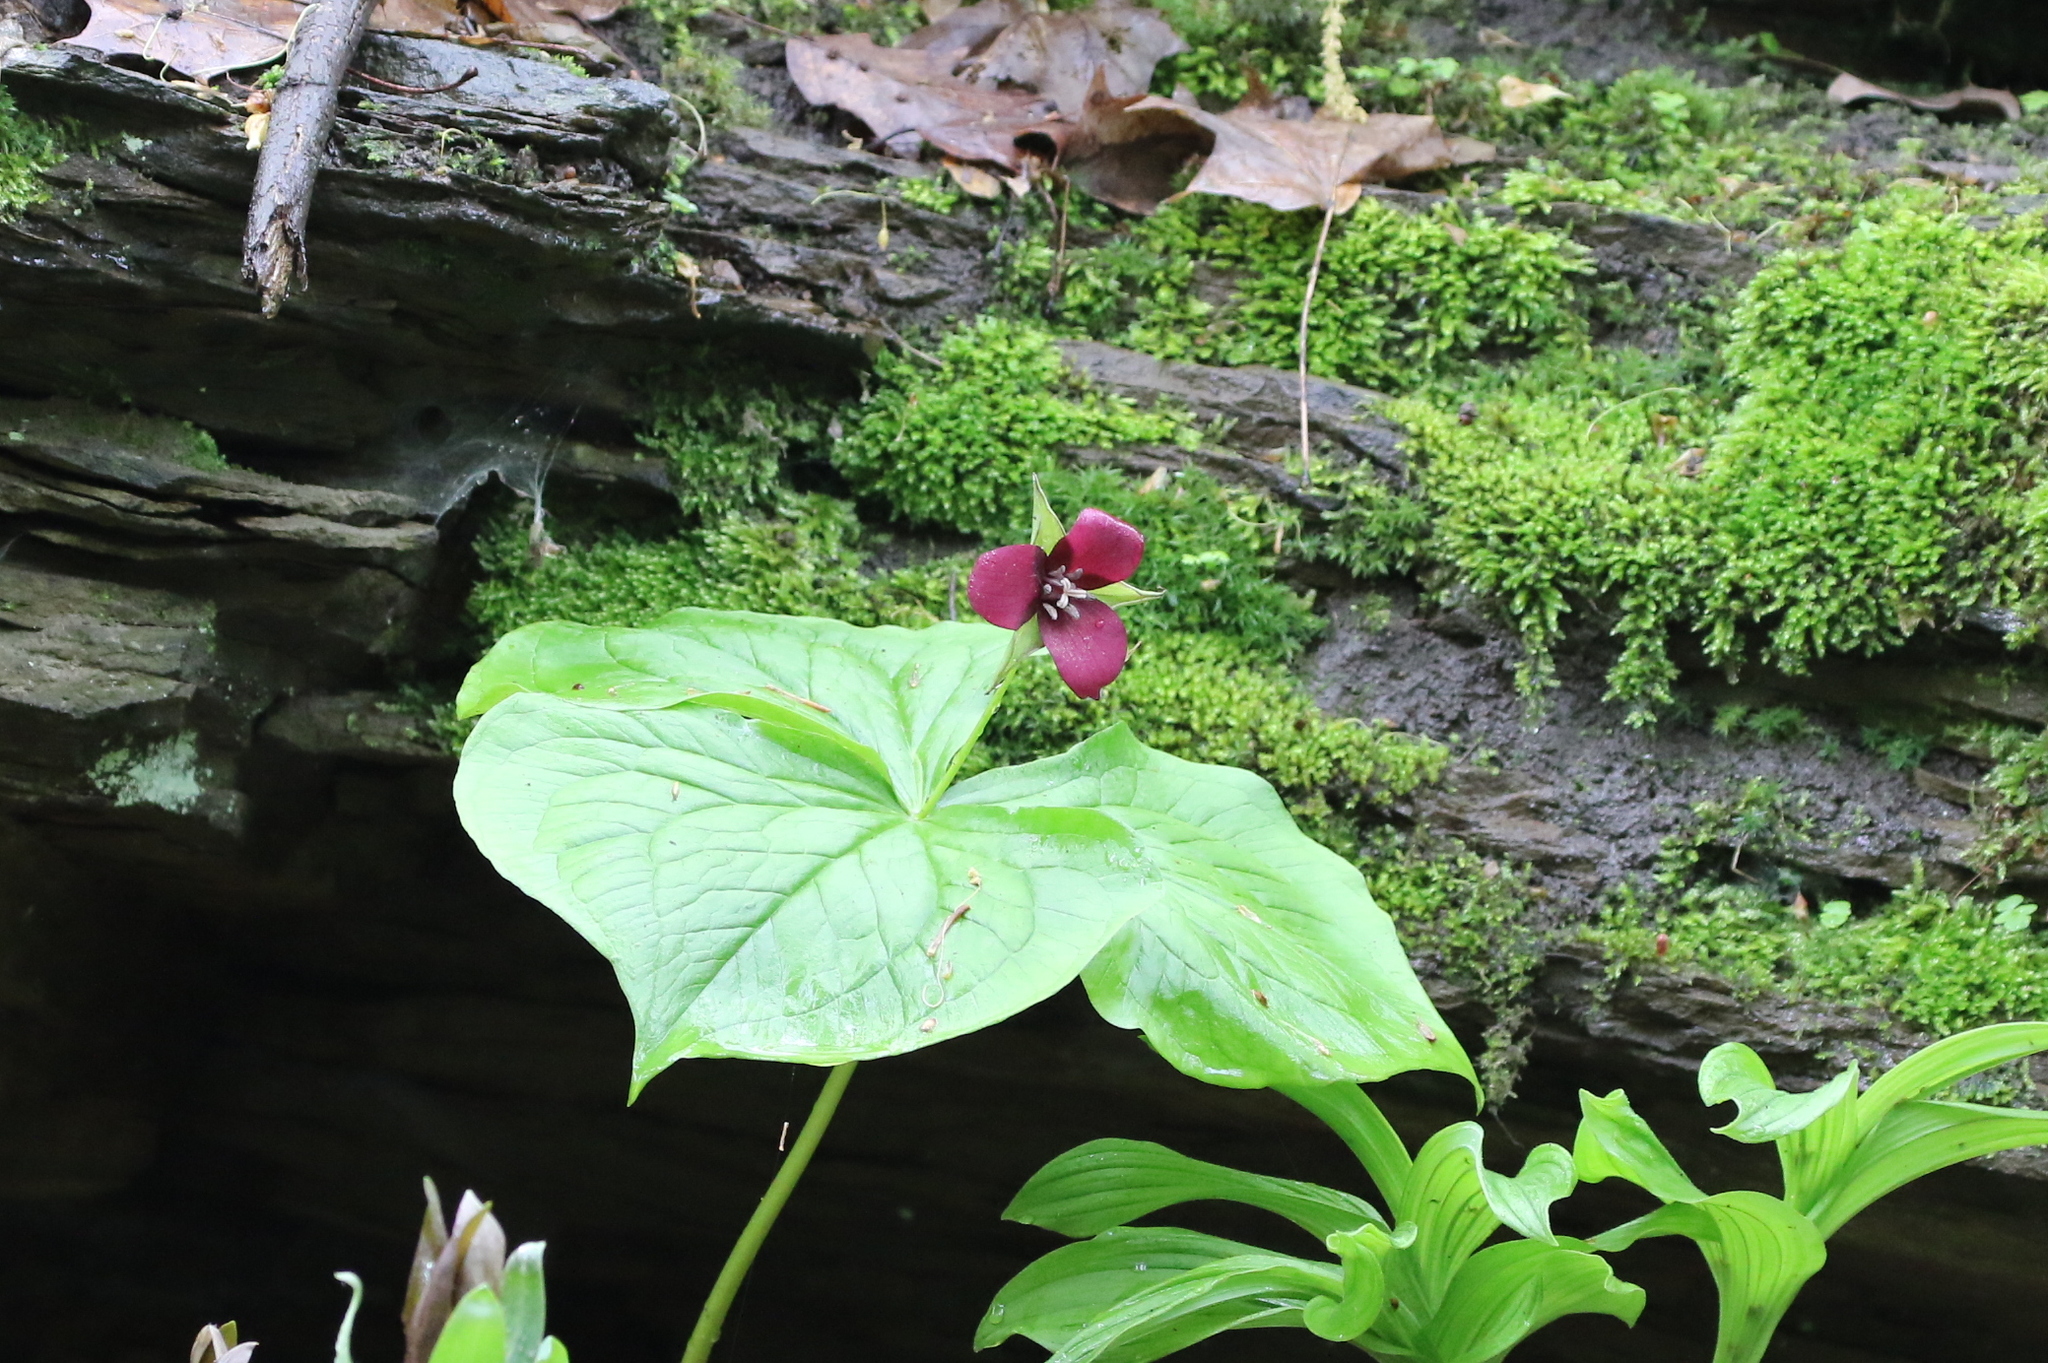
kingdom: Plantae
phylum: Tracheophyta
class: Liliopsida
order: Liliales
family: Melanthiaceae
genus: Trillium
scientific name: Trillium erectum
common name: Purple trillium
